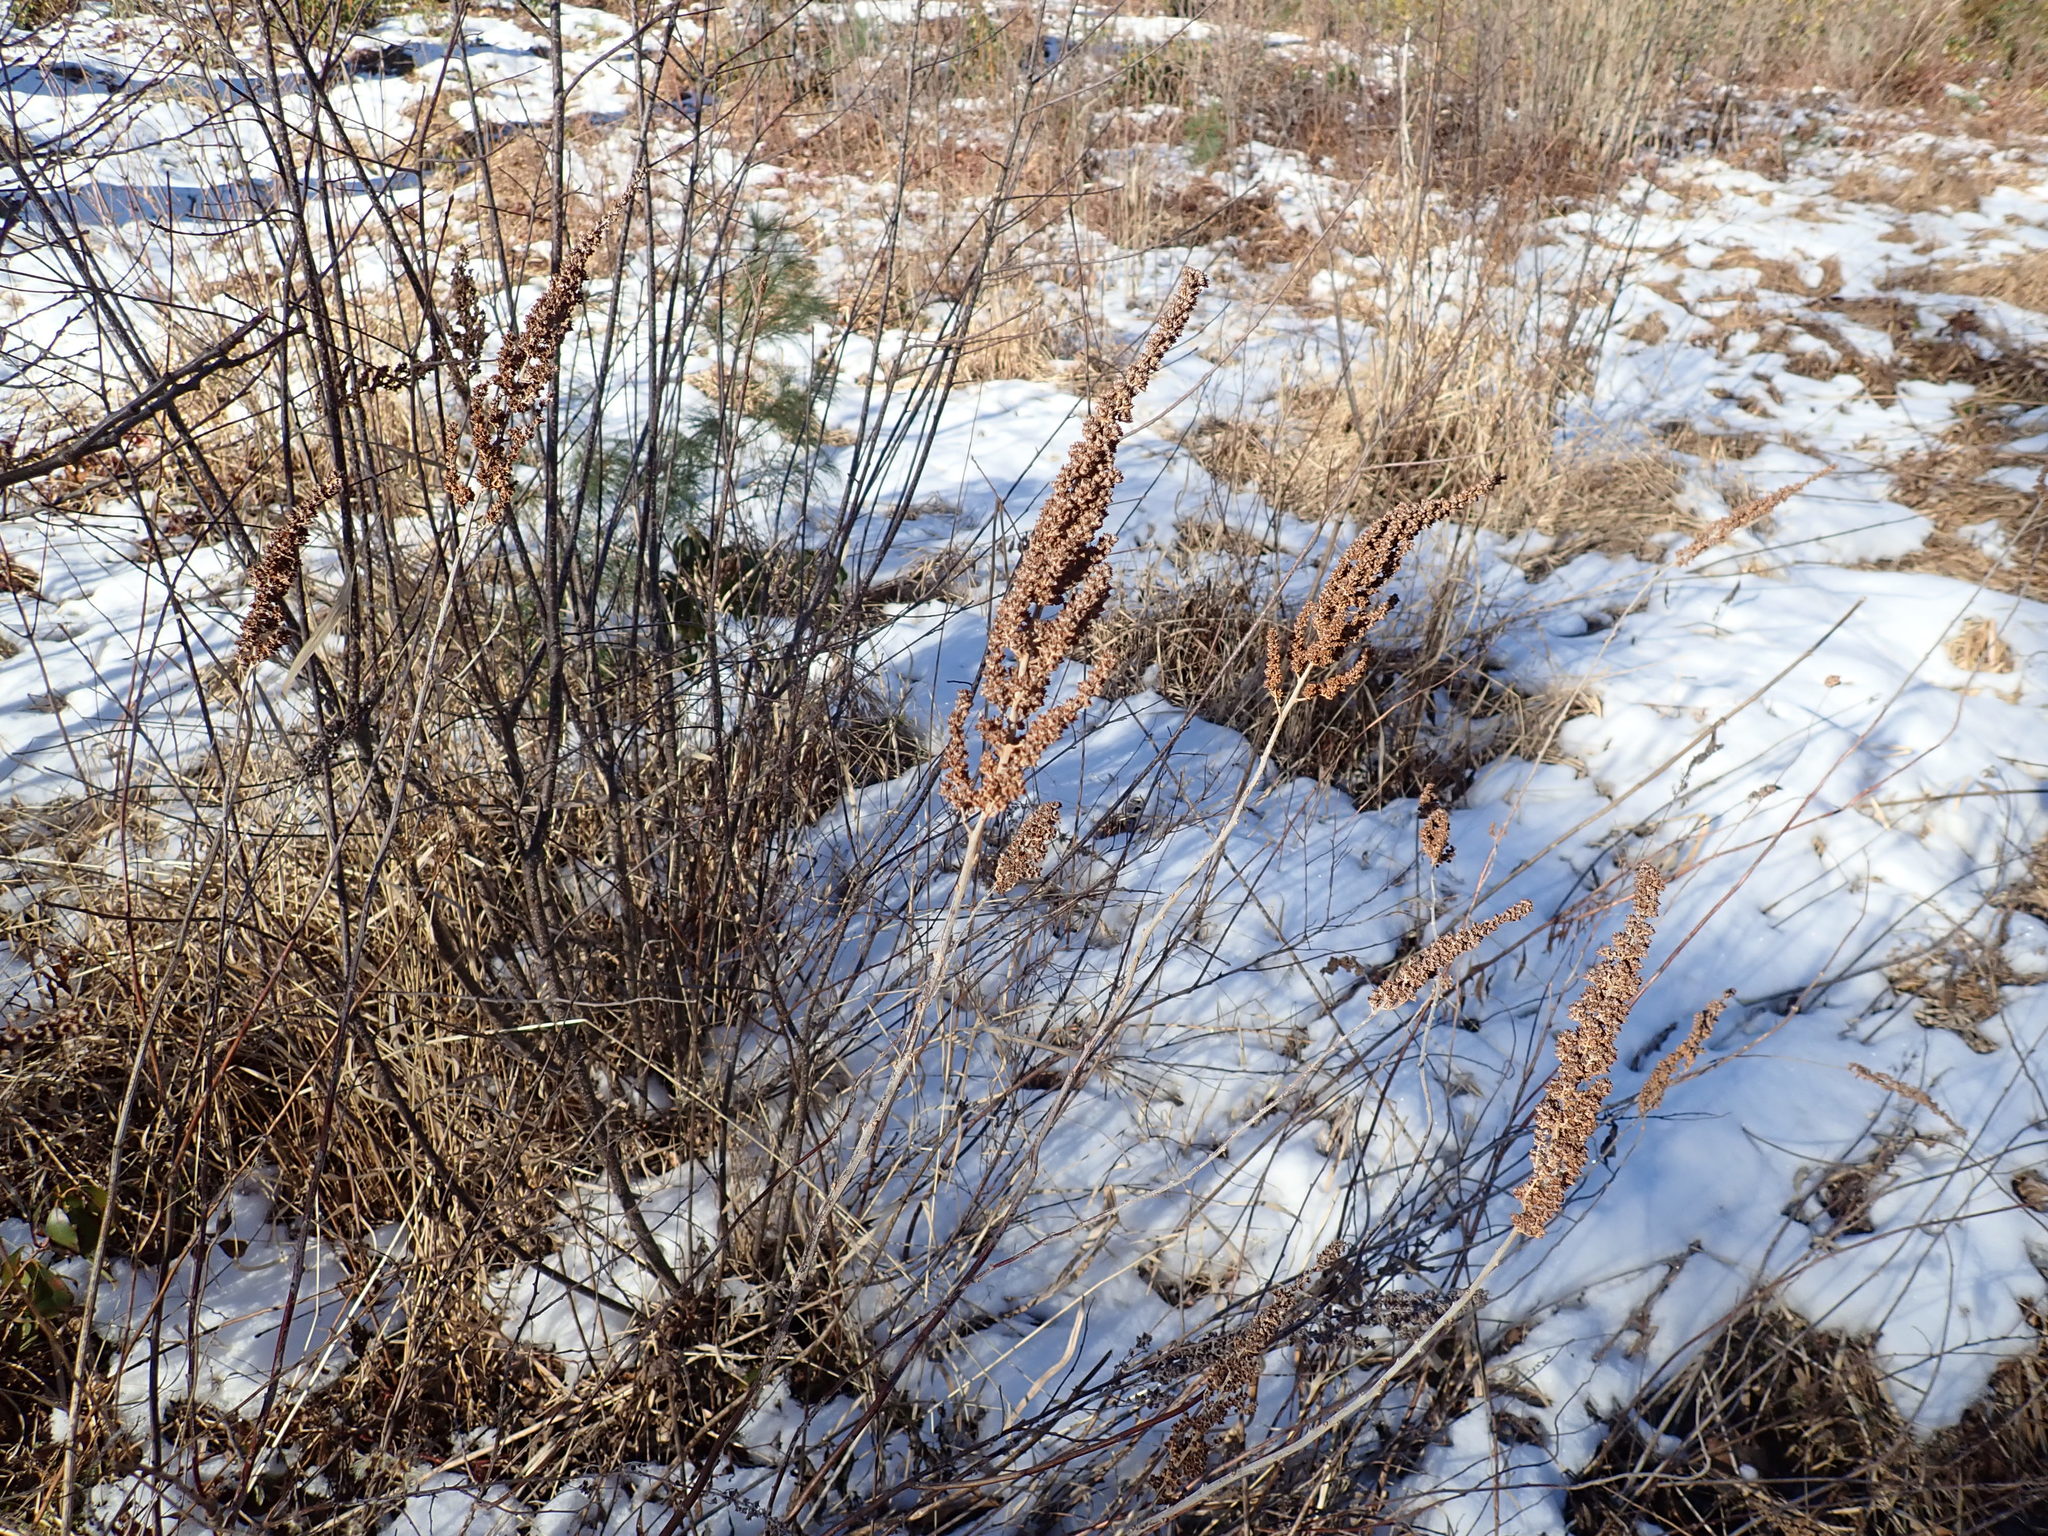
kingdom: Plantae
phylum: Tracheophyta
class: Magnoliopsida
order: Rosales
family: Rosaceae
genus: Spiraea
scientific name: Spiraea tomentosa
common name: Hardhack
